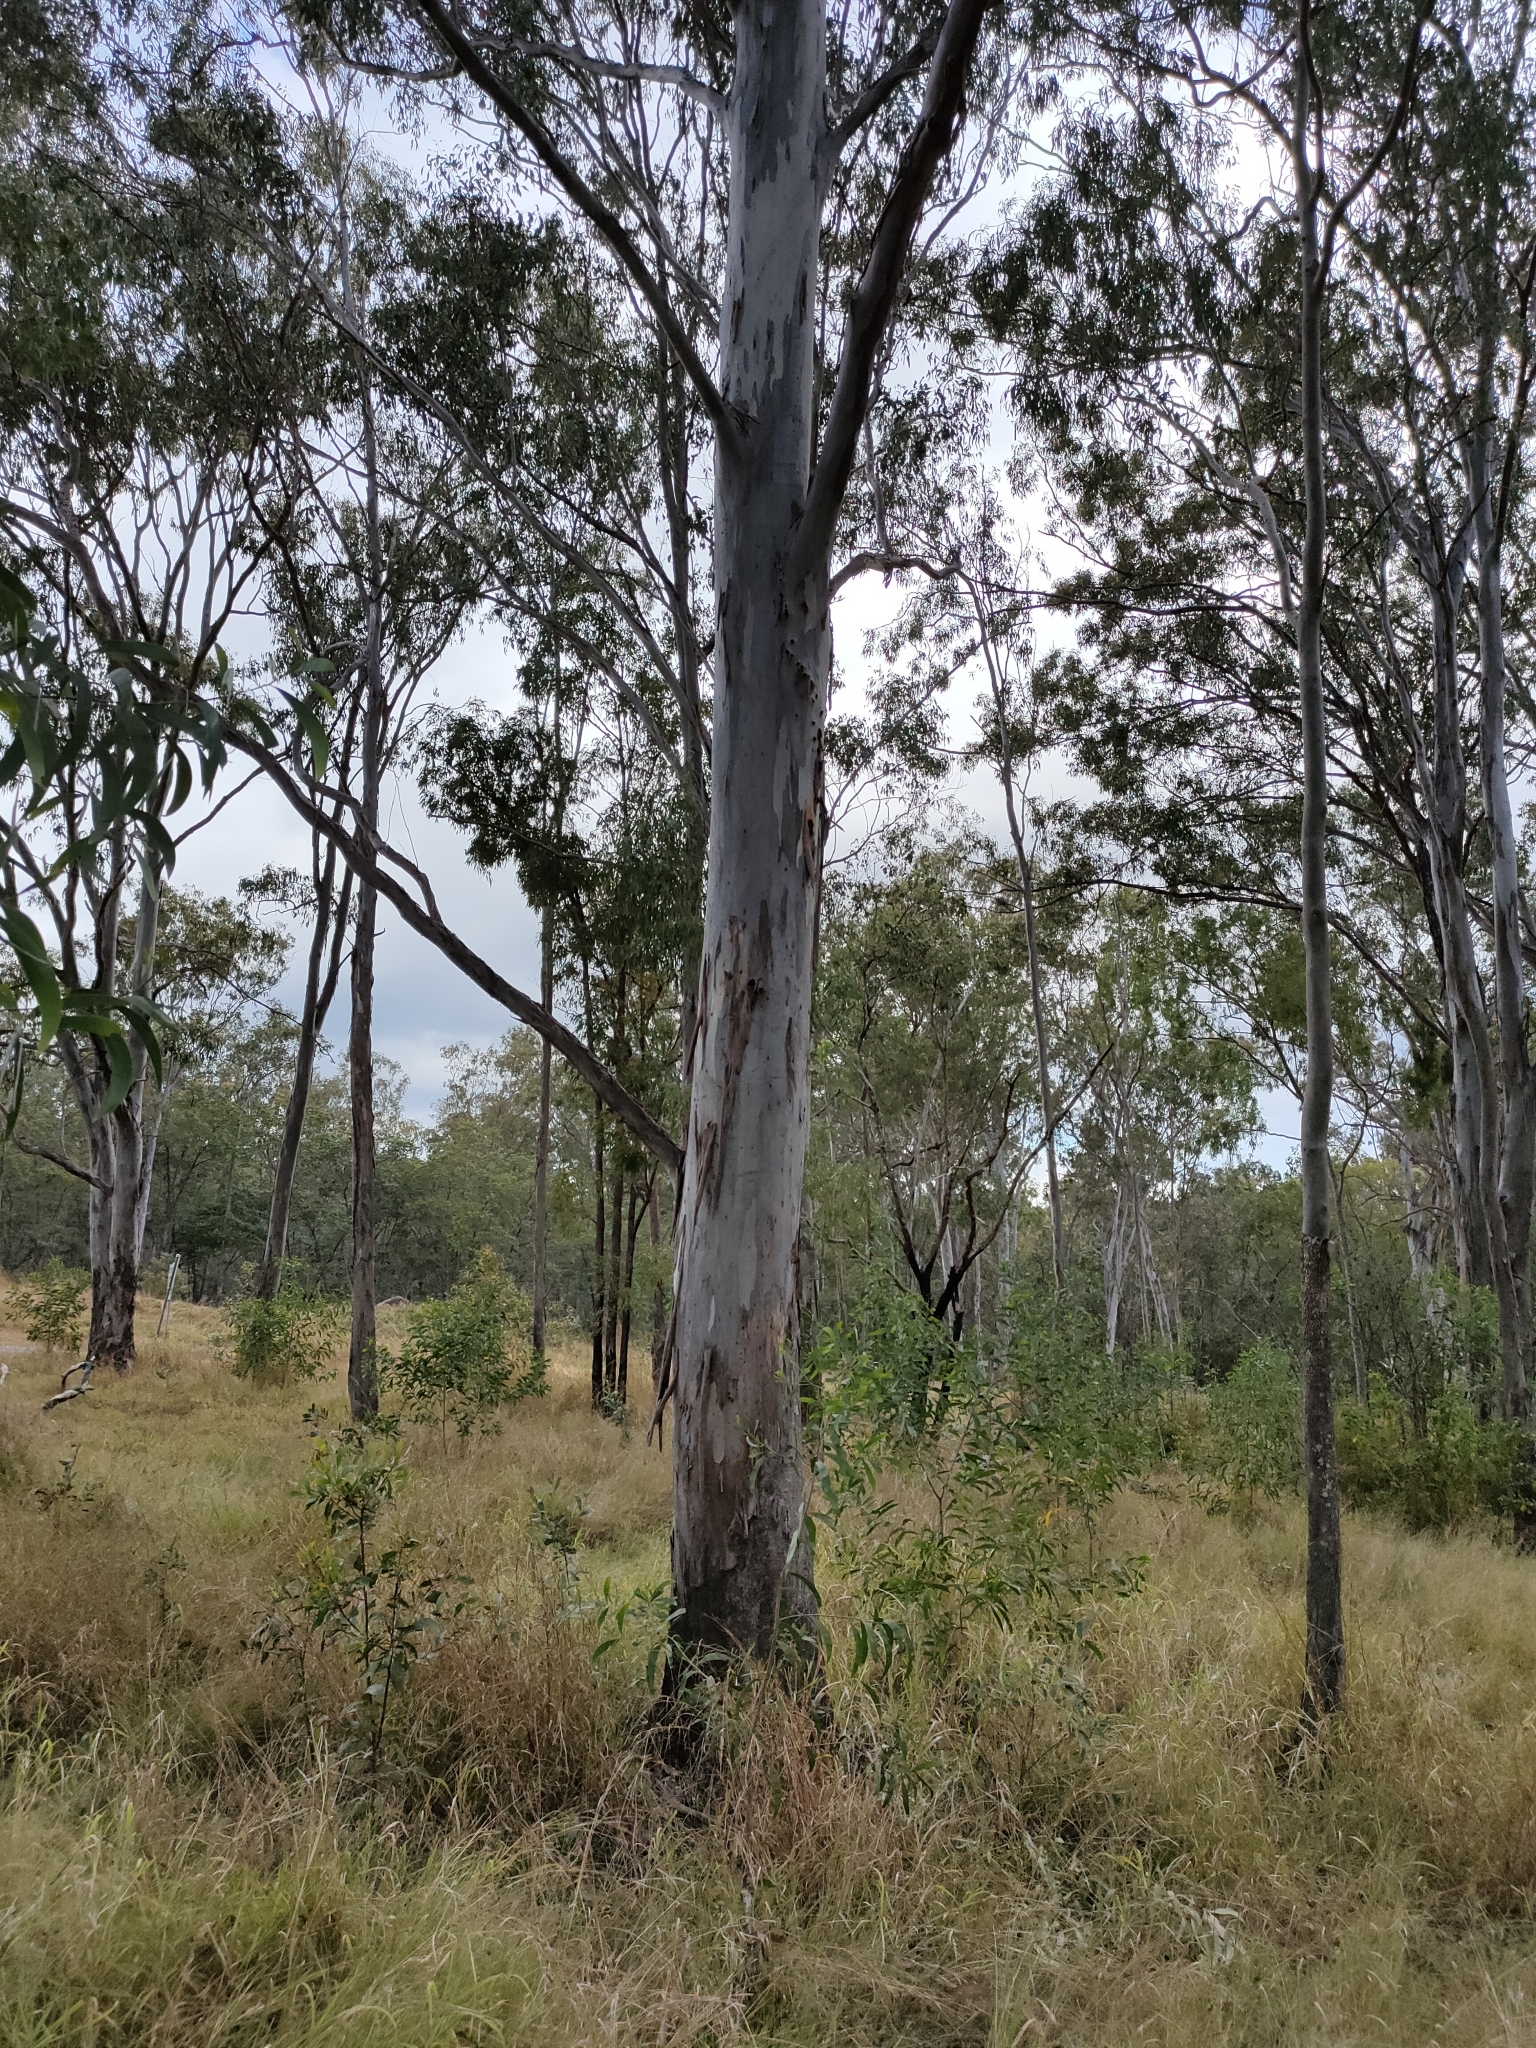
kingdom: Plantae
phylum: Tracheophyta
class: Magnoliopsida
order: Myrtales
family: Myrtaceae
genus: Eucalyptus
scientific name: Eucalyptus tereticornis
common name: Forest redgum
